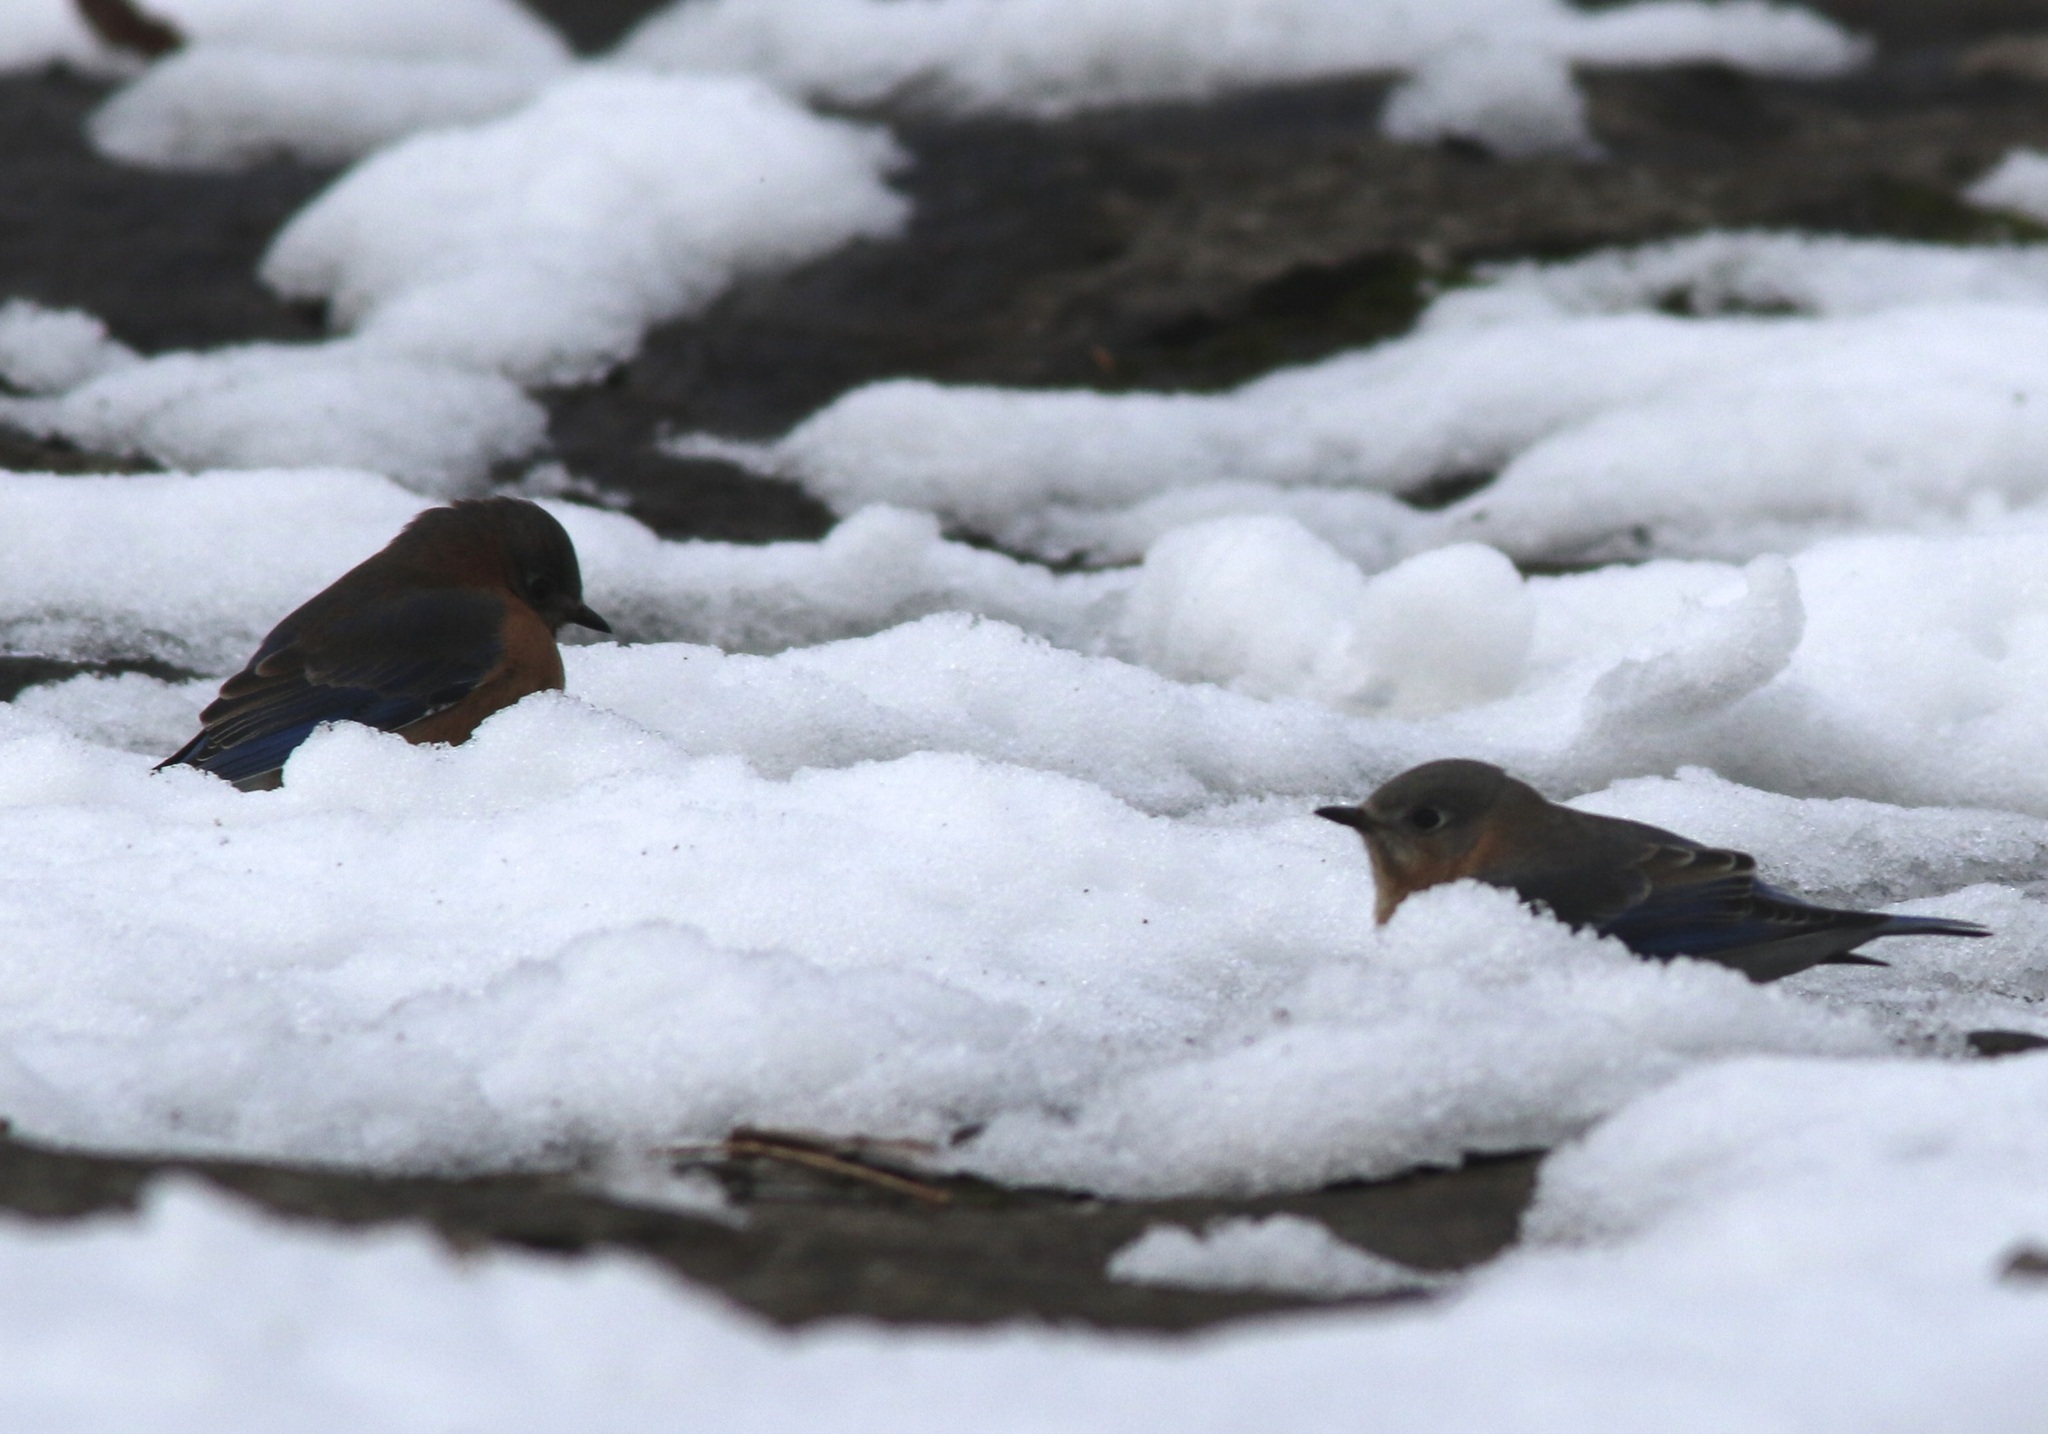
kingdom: Animalia
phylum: Chordata
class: Aves
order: Passeriformes
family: Turdidae
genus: Sialia
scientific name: Sialia sialis
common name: Eastern bluebird
